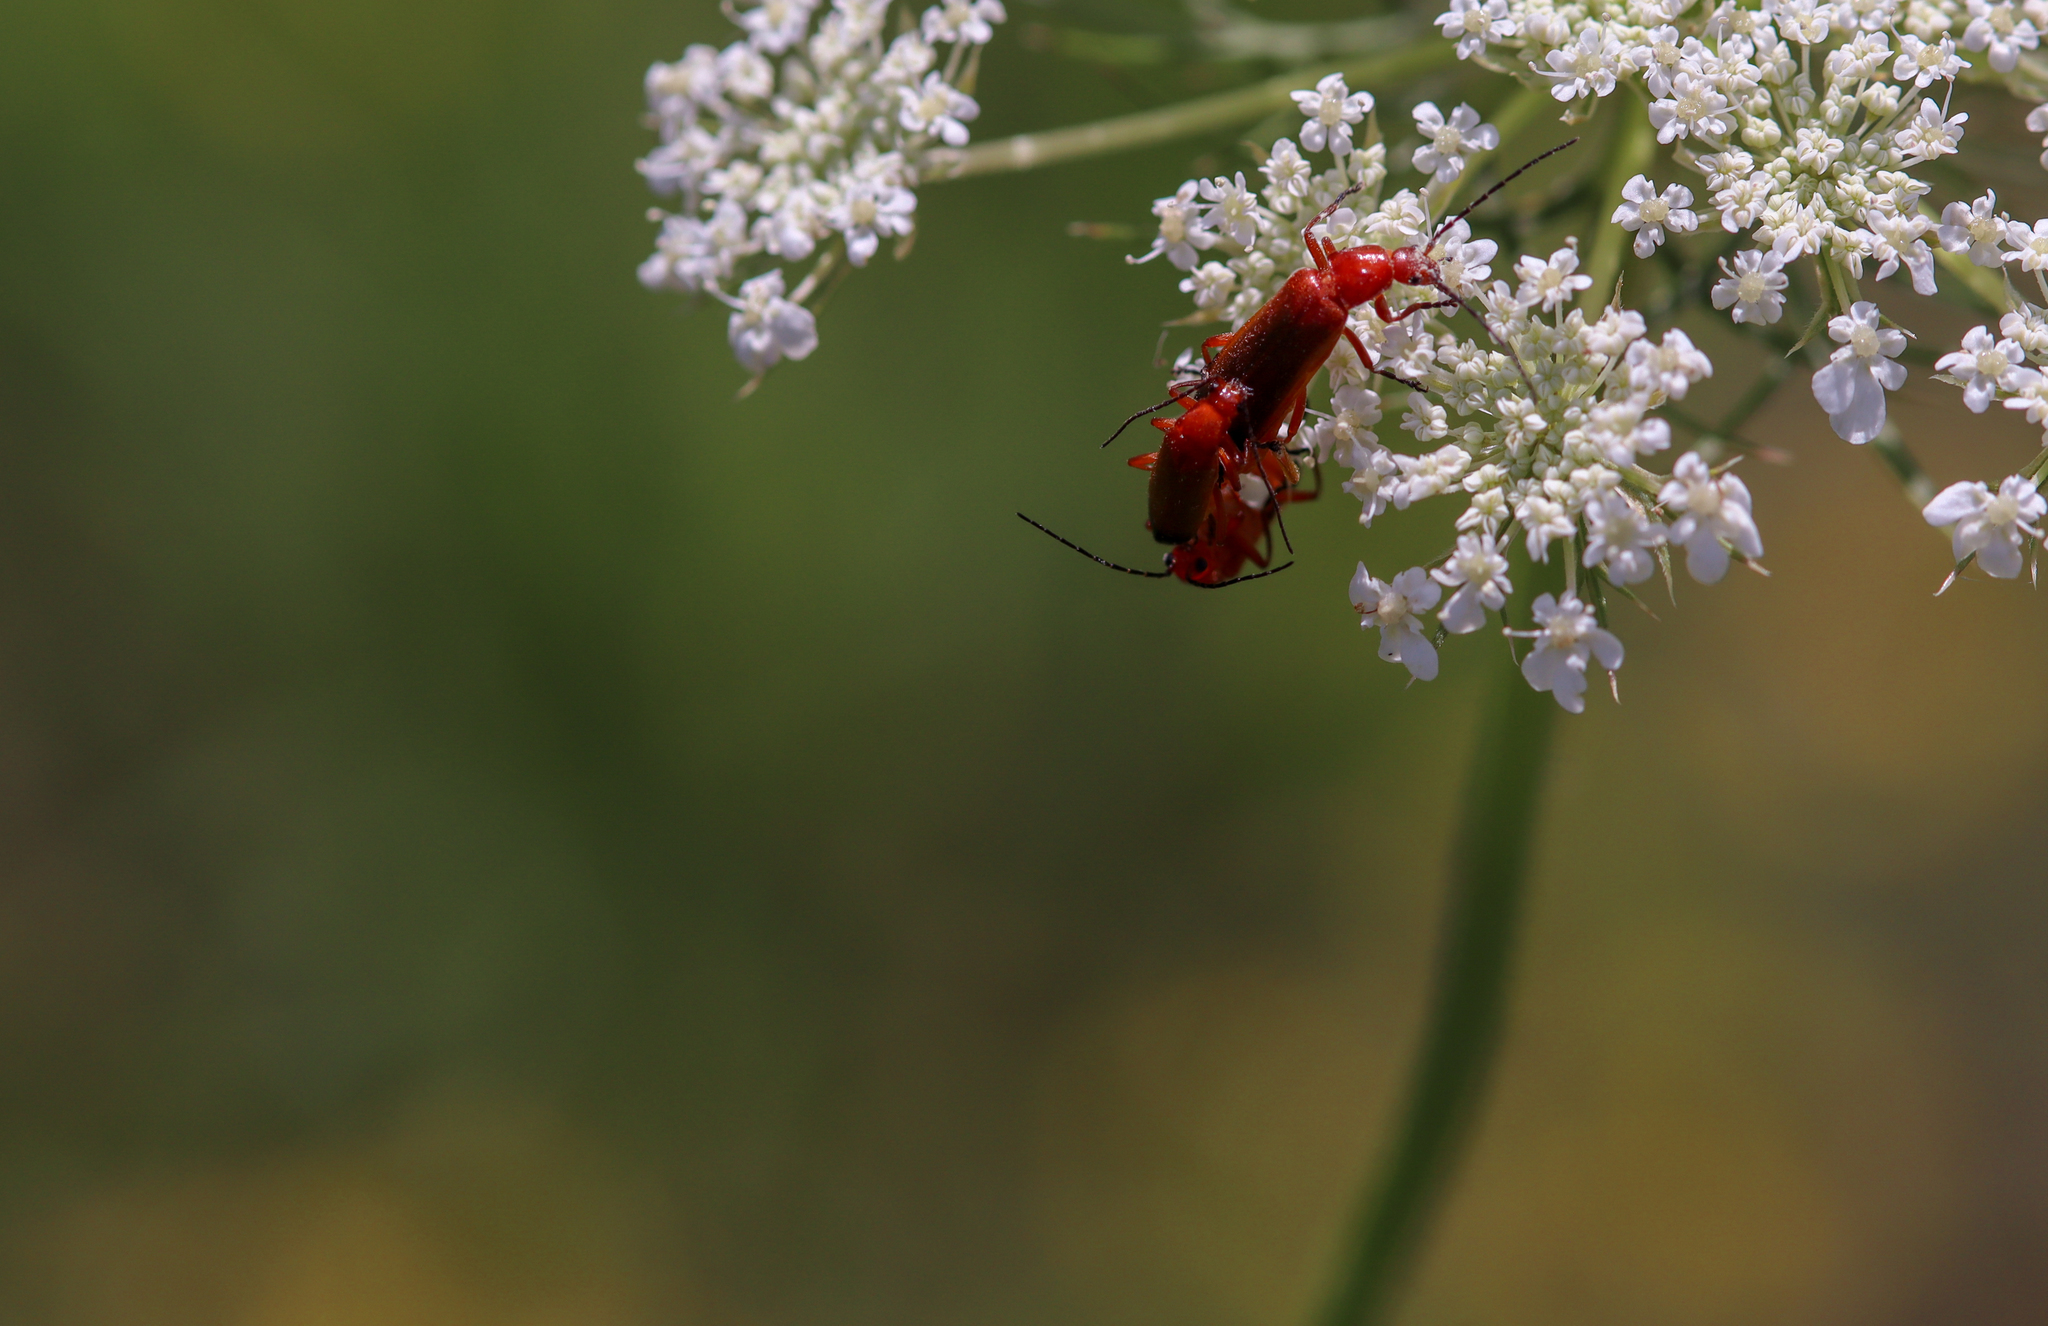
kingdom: Animalia
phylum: Arthropoda
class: Insecta
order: Coleoptera
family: Cantharidae
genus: Rhagonycha
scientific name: Rhagonycha fulva
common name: Common red soldier beetle
